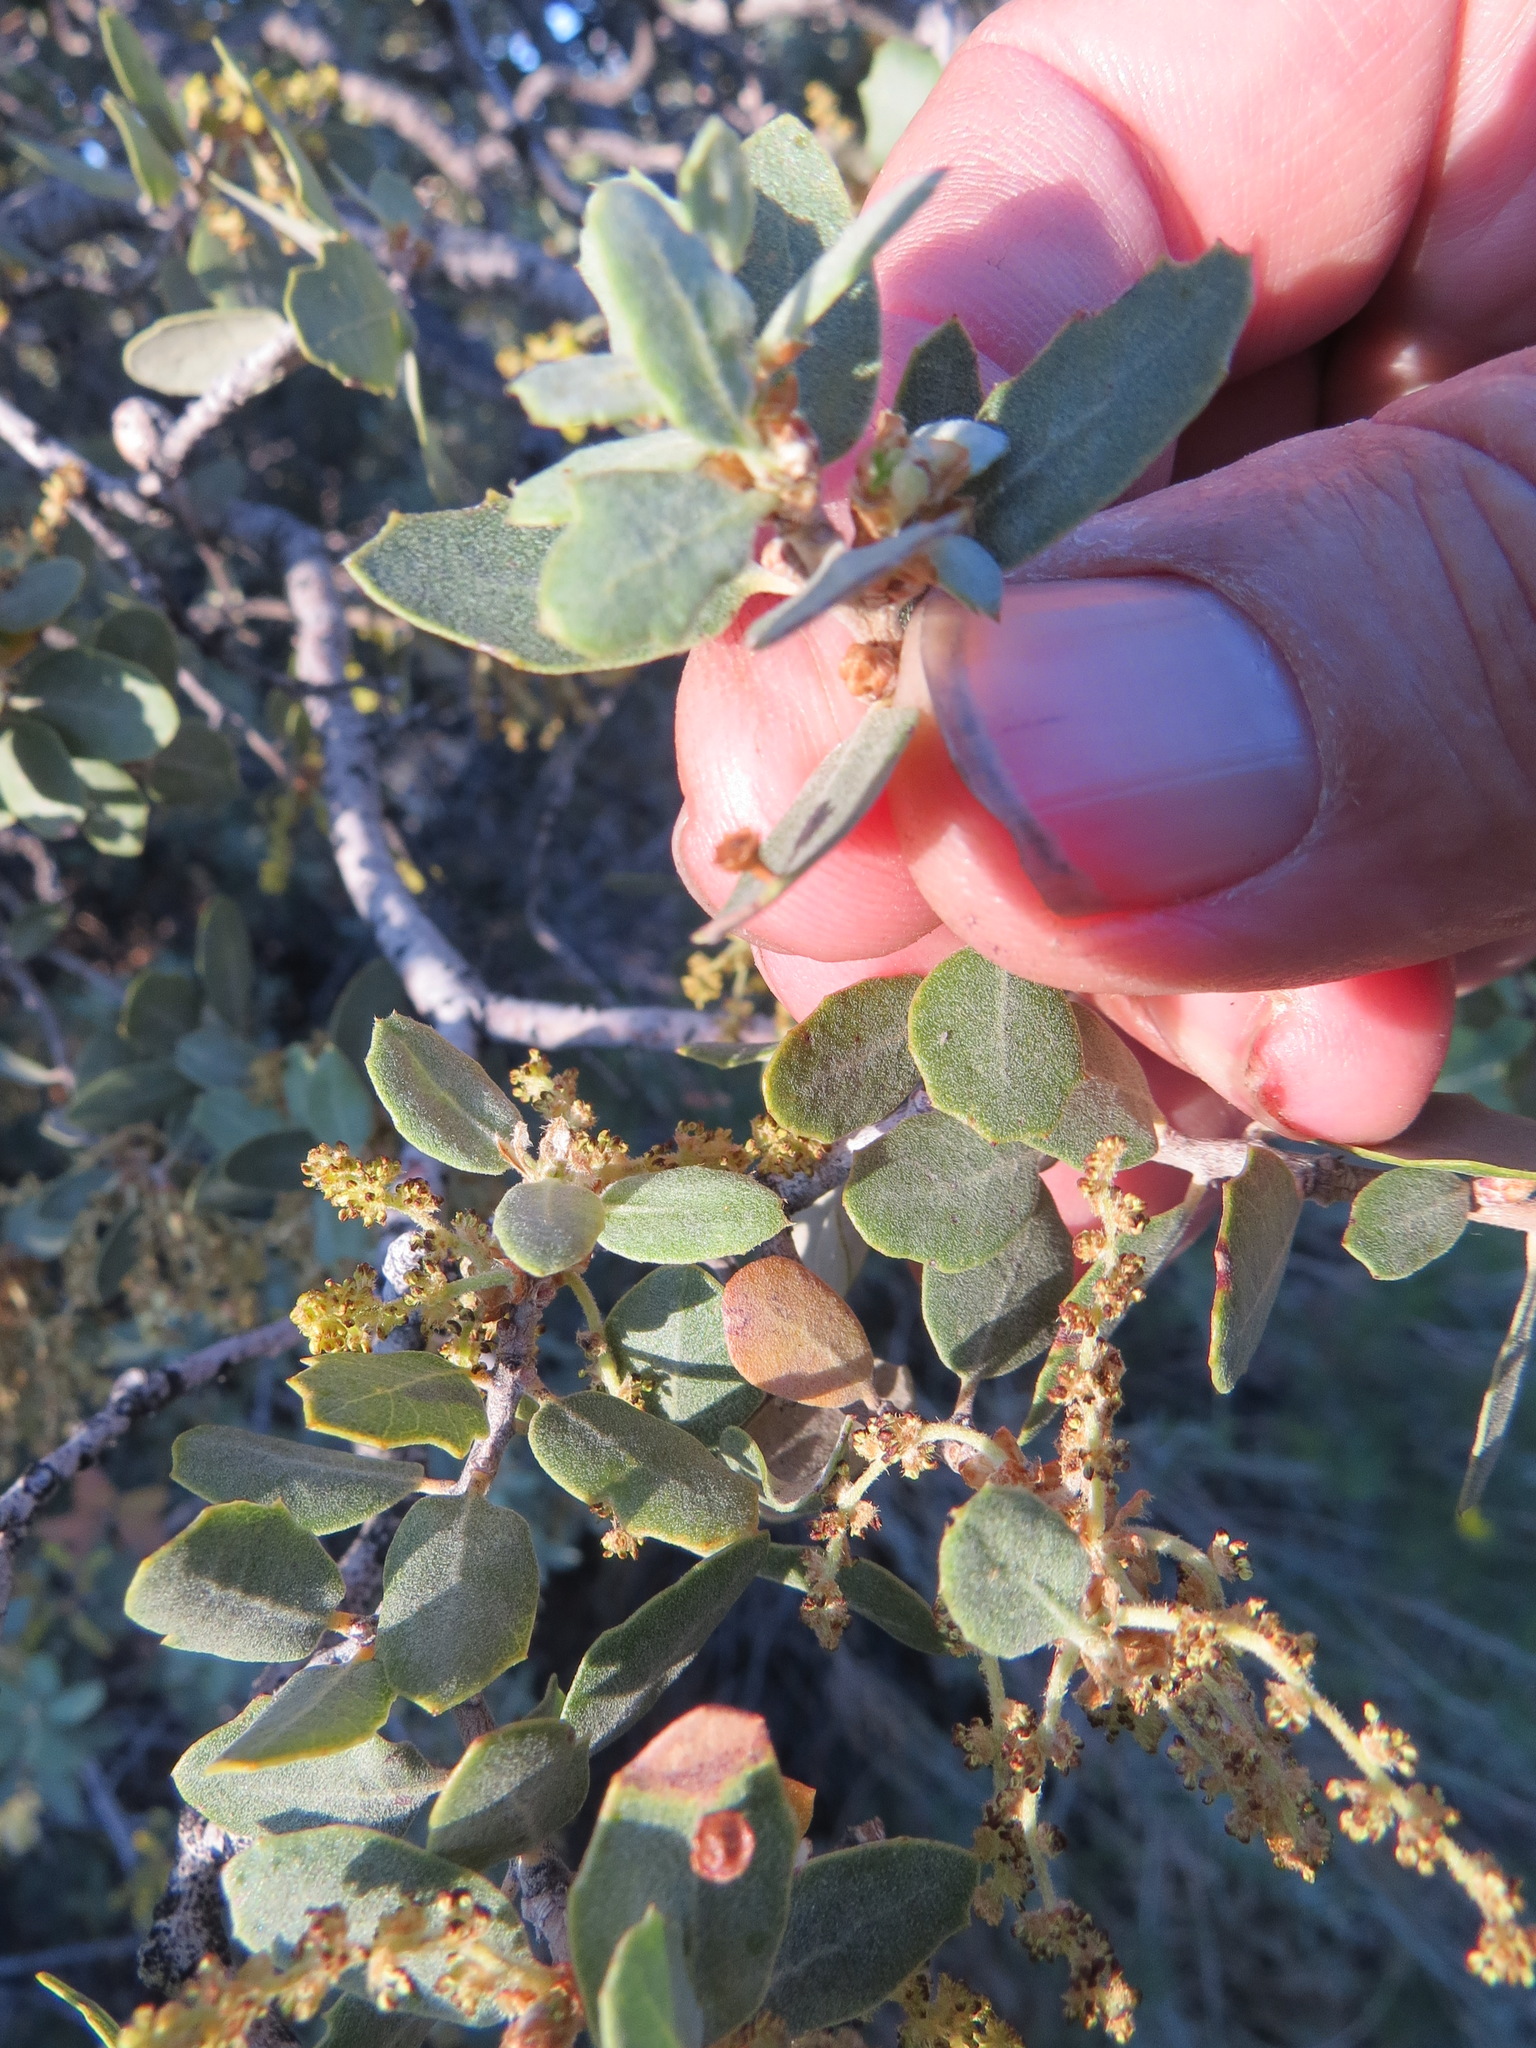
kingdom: Animalia
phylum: Arthropoda
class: Insecta
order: Hymenoptera
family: Cynipidae
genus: Andricus
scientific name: Andricus
